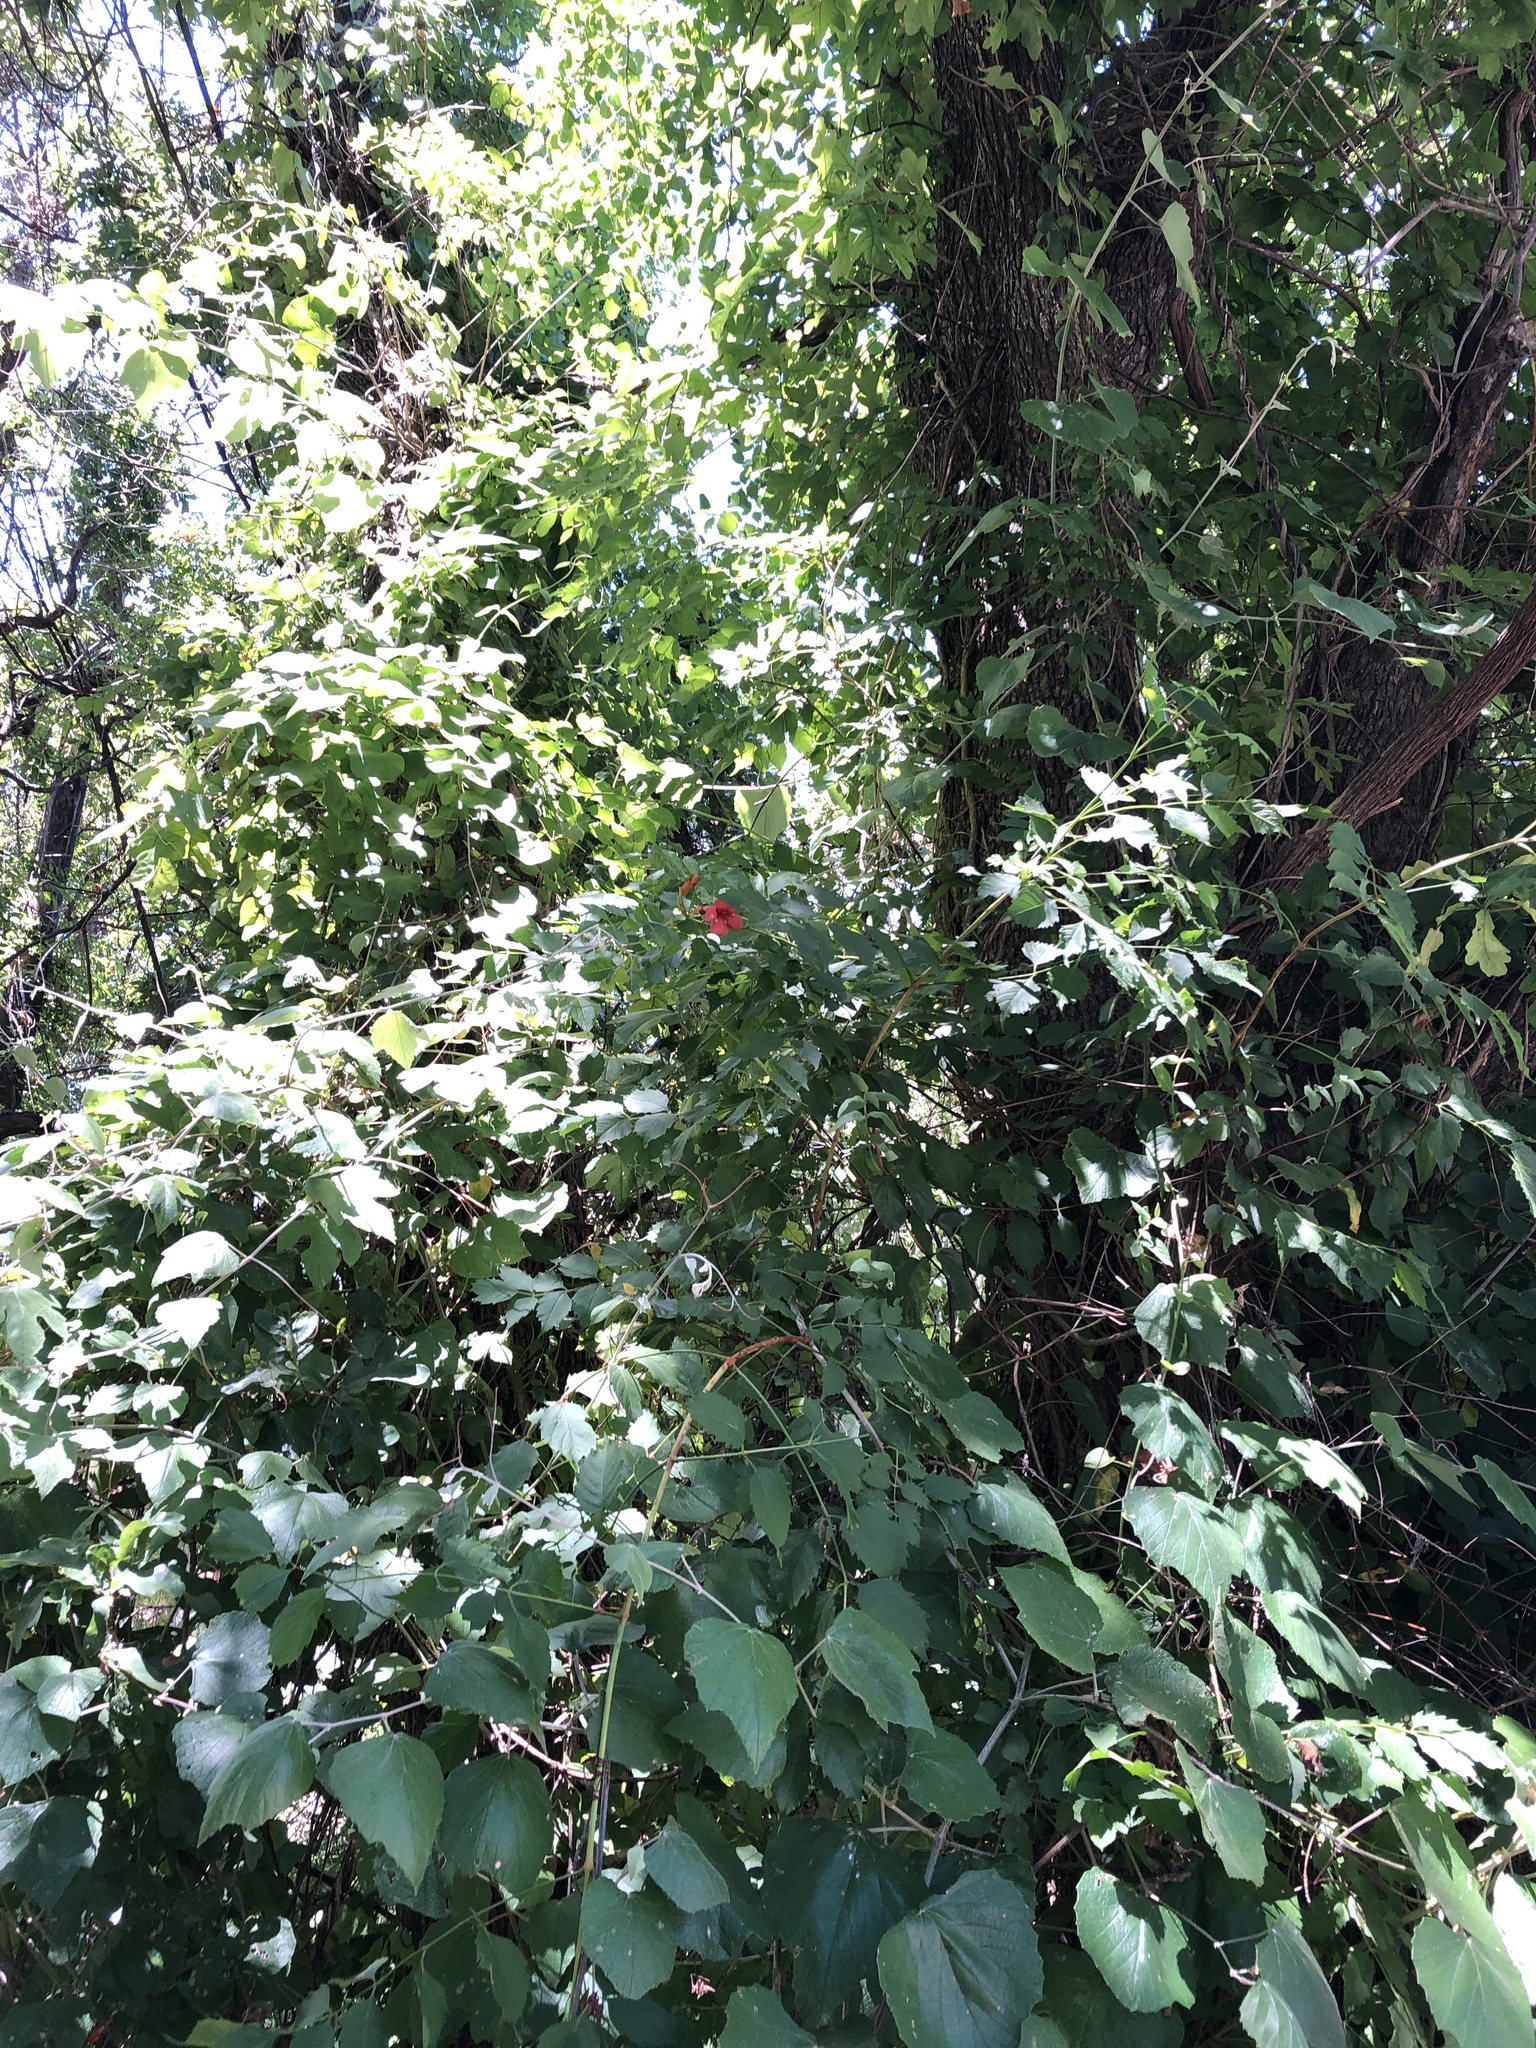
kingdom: Plantae
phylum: Tracheophyta
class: Magnoliopsida
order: Lamiales
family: Bignoniaceae
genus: Campsis
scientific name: Campsis radicans
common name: Trumpet-creeper
